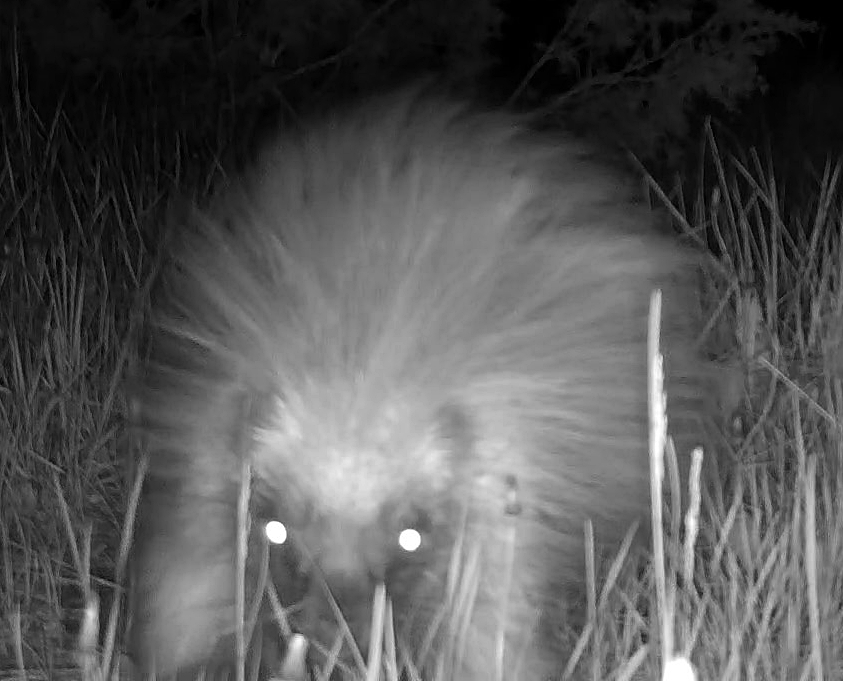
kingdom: Animalia
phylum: Chordata
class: Mammalia
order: Rodentia
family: Erethizontidae
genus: Erethizon
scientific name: Erethizon dorsatus
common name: North american porcupine
